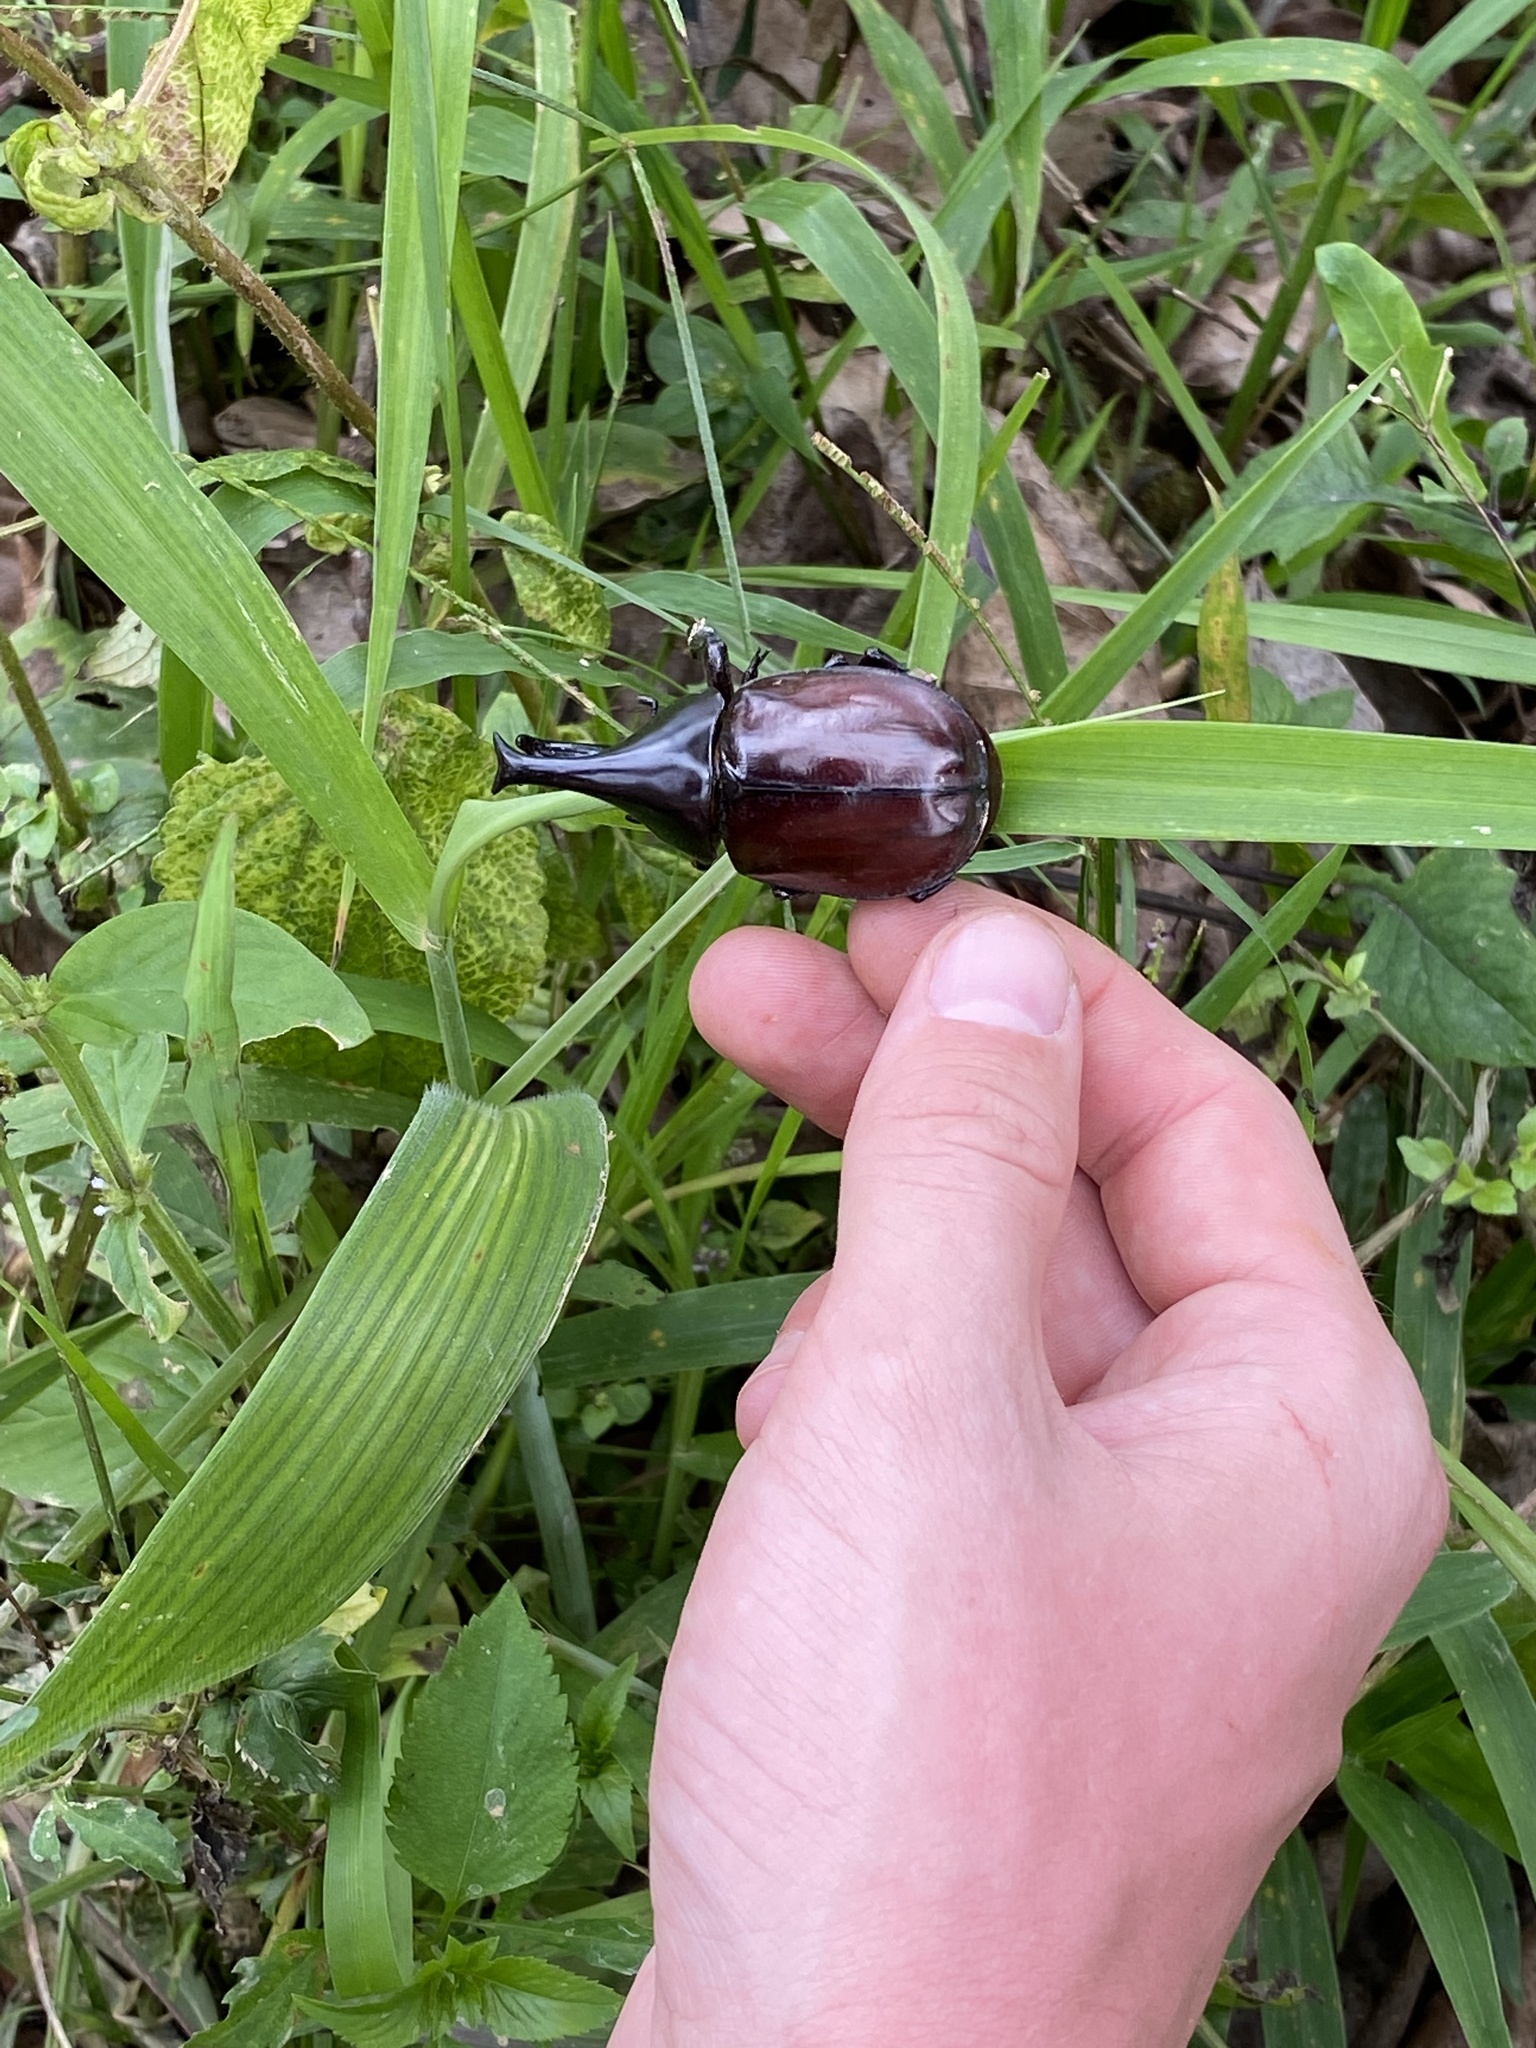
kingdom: Animalia
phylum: Arthropoda
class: Insecta
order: Coleoptera
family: Scarabaeidae
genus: Xylotrupes
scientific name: Xylotrupes socrates
